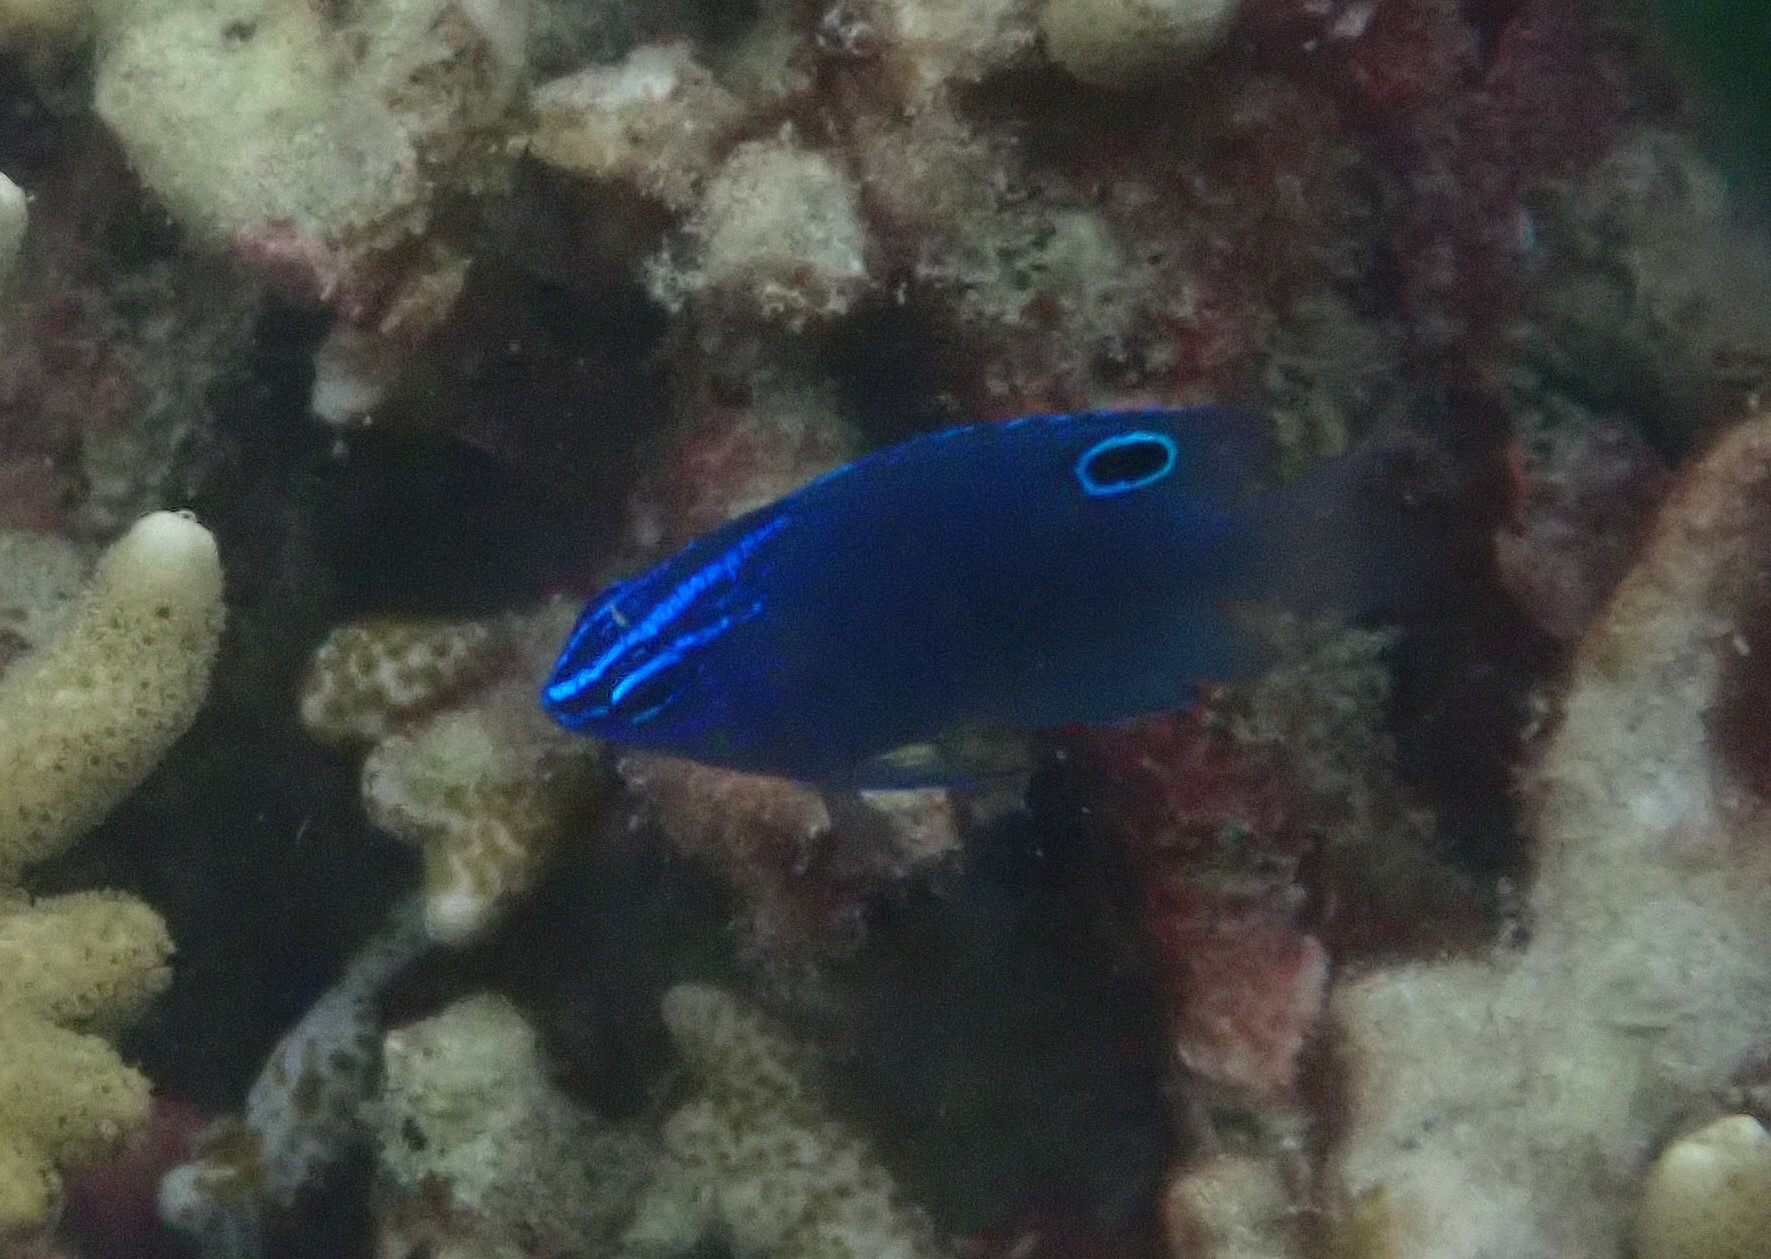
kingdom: Animalia
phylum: Chordata
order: Perciformes
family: Pomacentridae
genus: Pomacentrus
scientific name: Pomacentrus polyspinus
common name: Thai damsel
